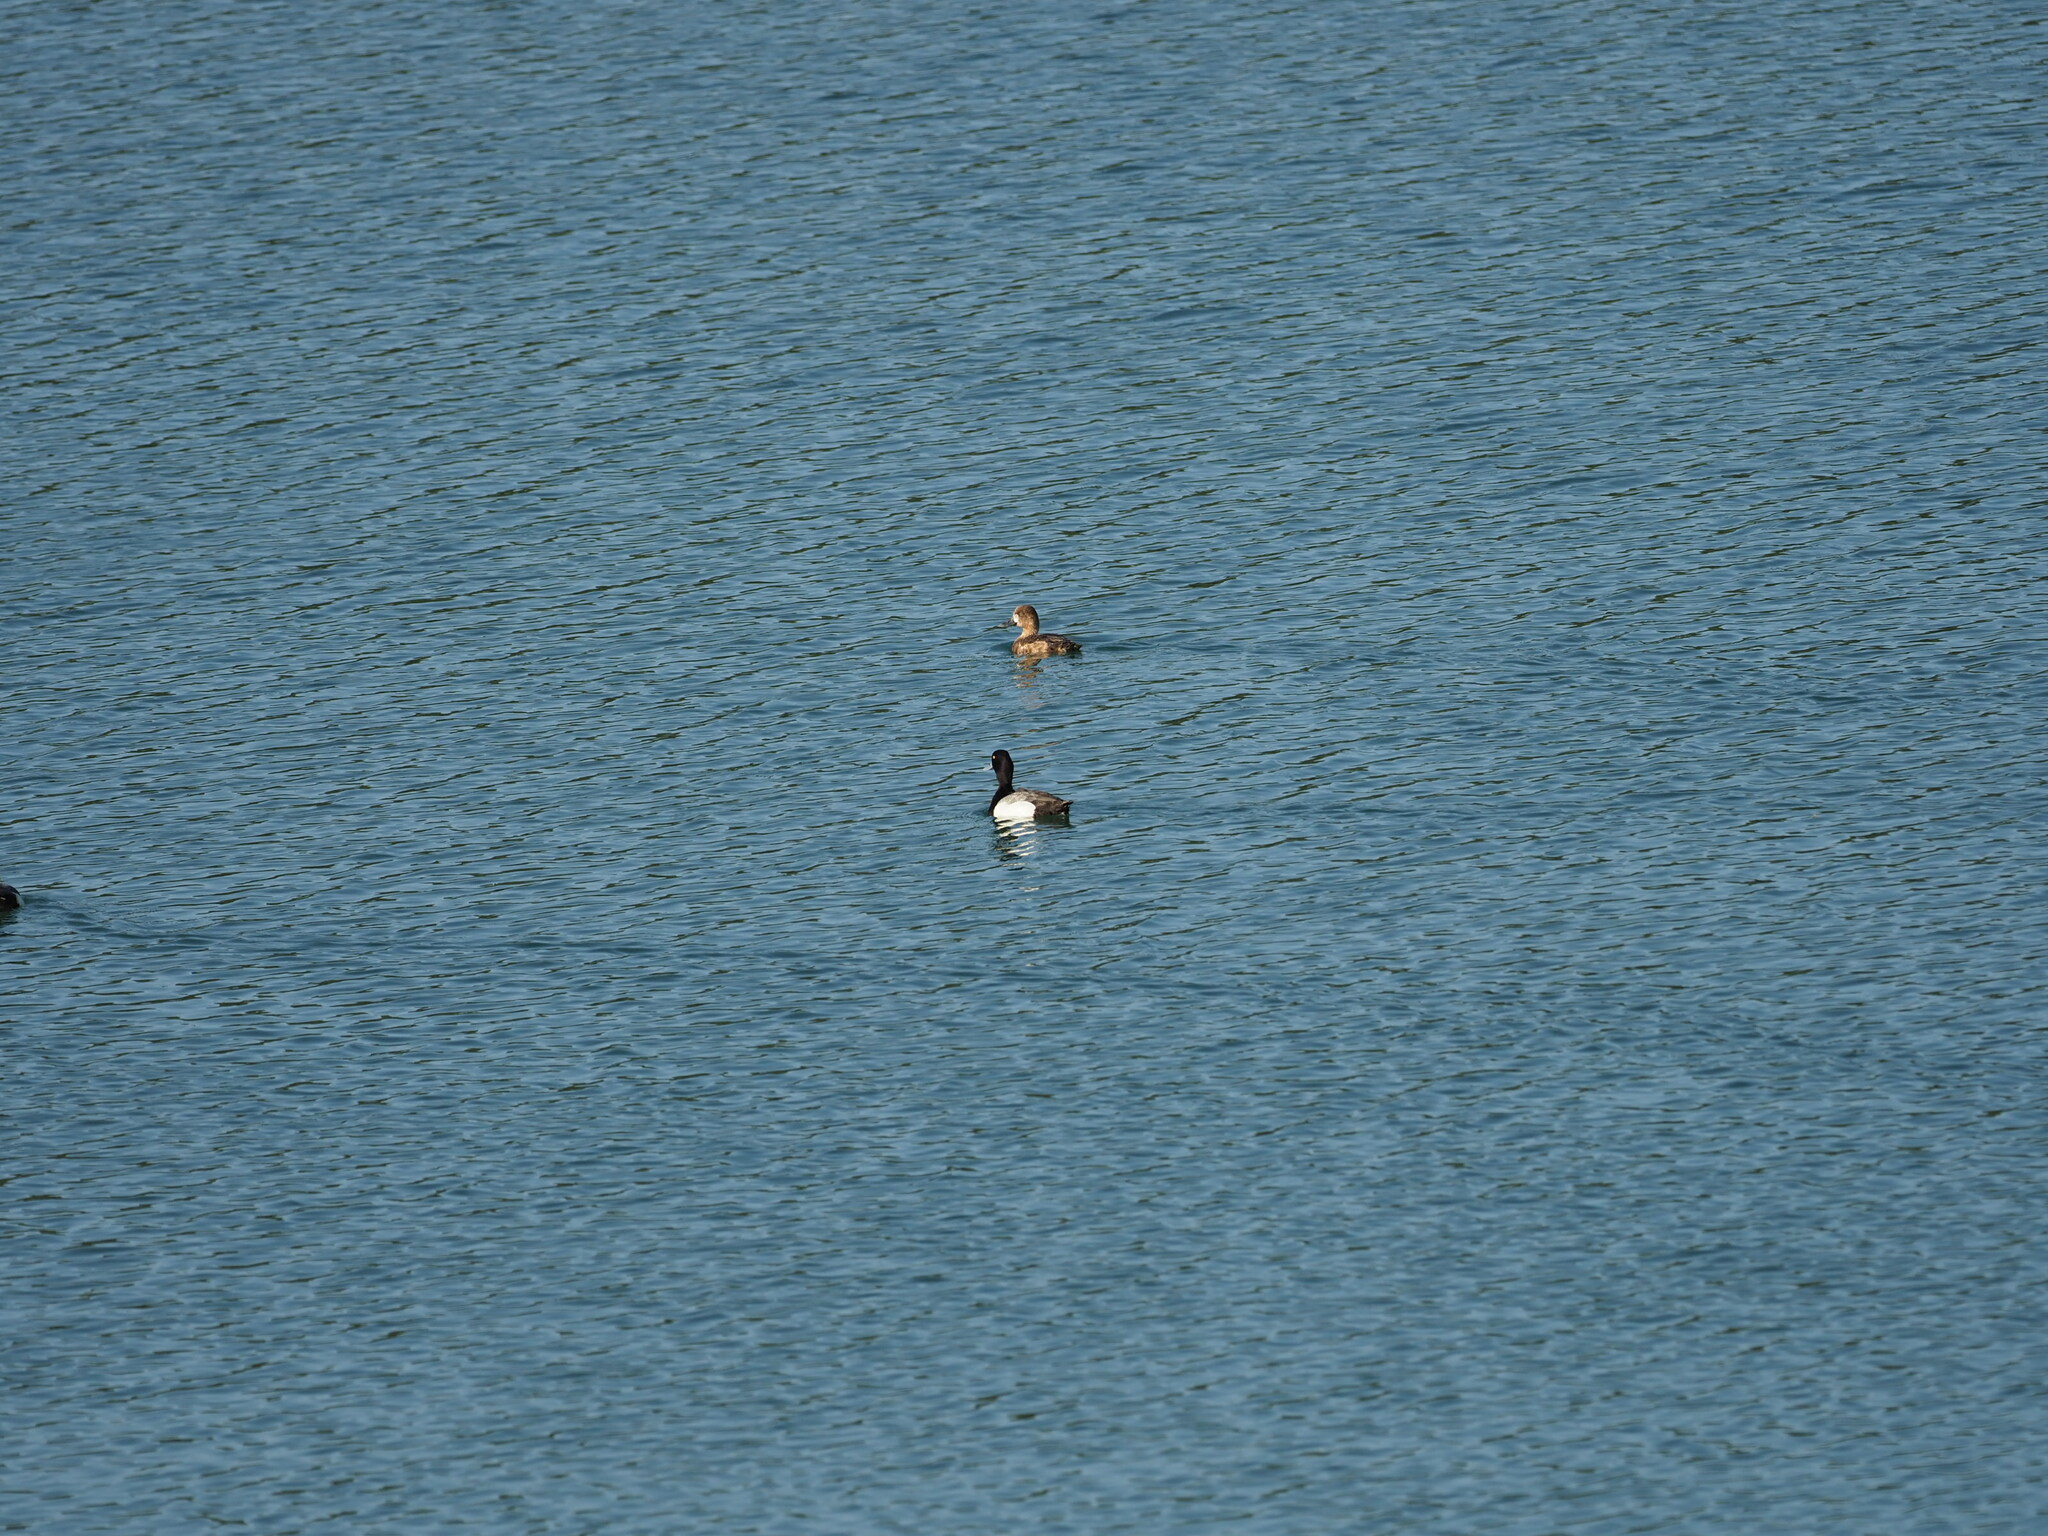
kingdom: Animalia
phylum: Chordata
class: Aves
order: Anseriformes
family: Anatidae
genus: Aythya
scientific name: Aythya affinis
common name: Lesser scaup
